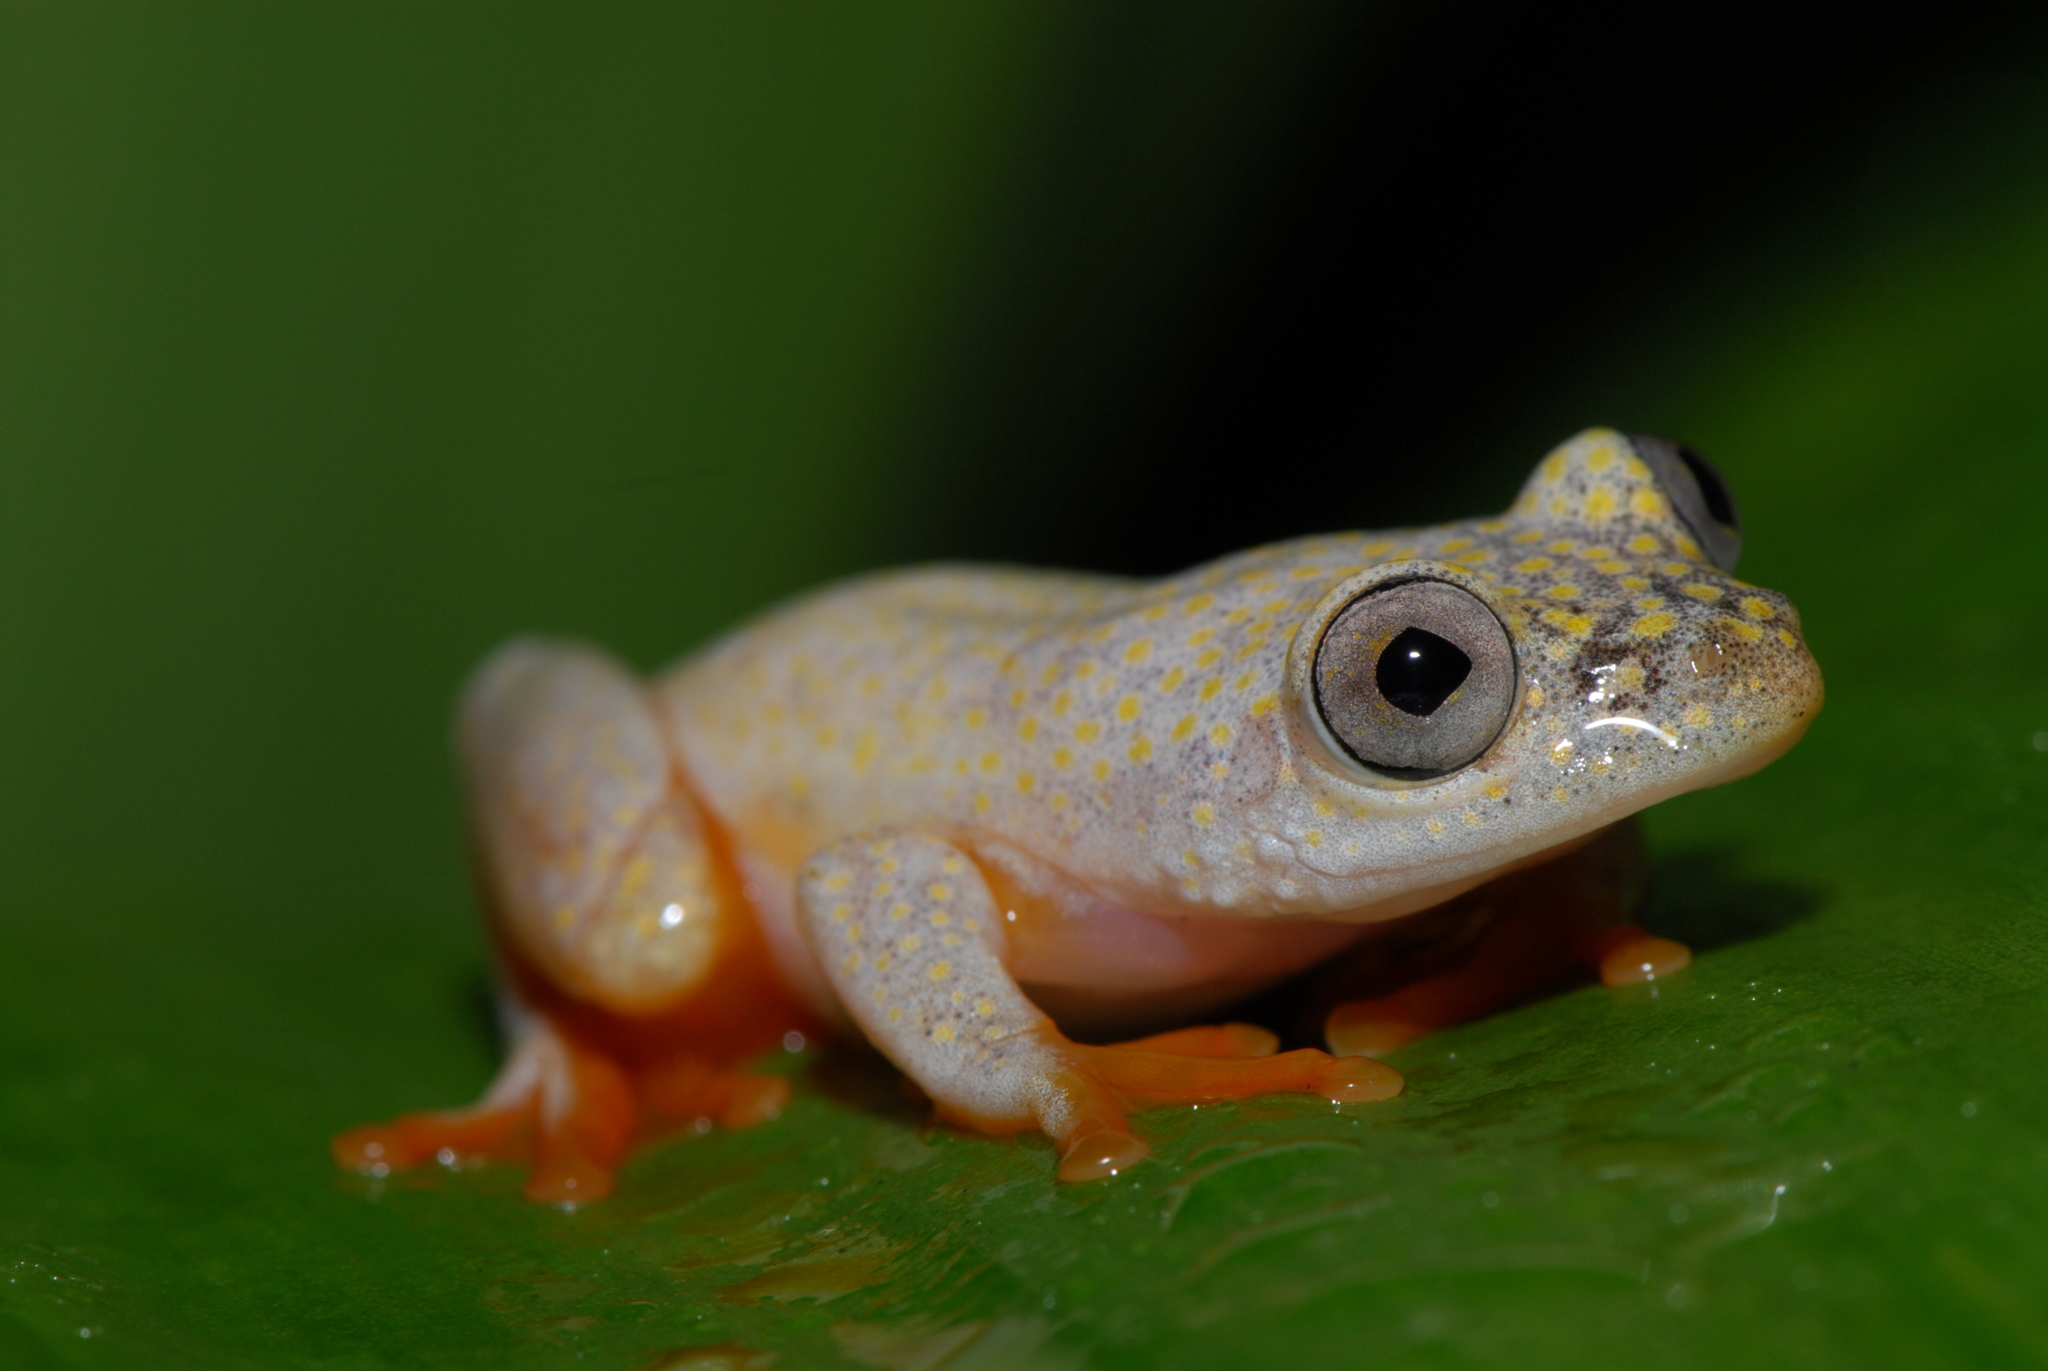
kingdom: Animalia
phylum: Chordata
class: Amphibia
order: Anura
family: Hyperoliidae
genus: Heterixalus
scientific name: Heterixalus alboguttatus
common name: Whitebelly reed frog
